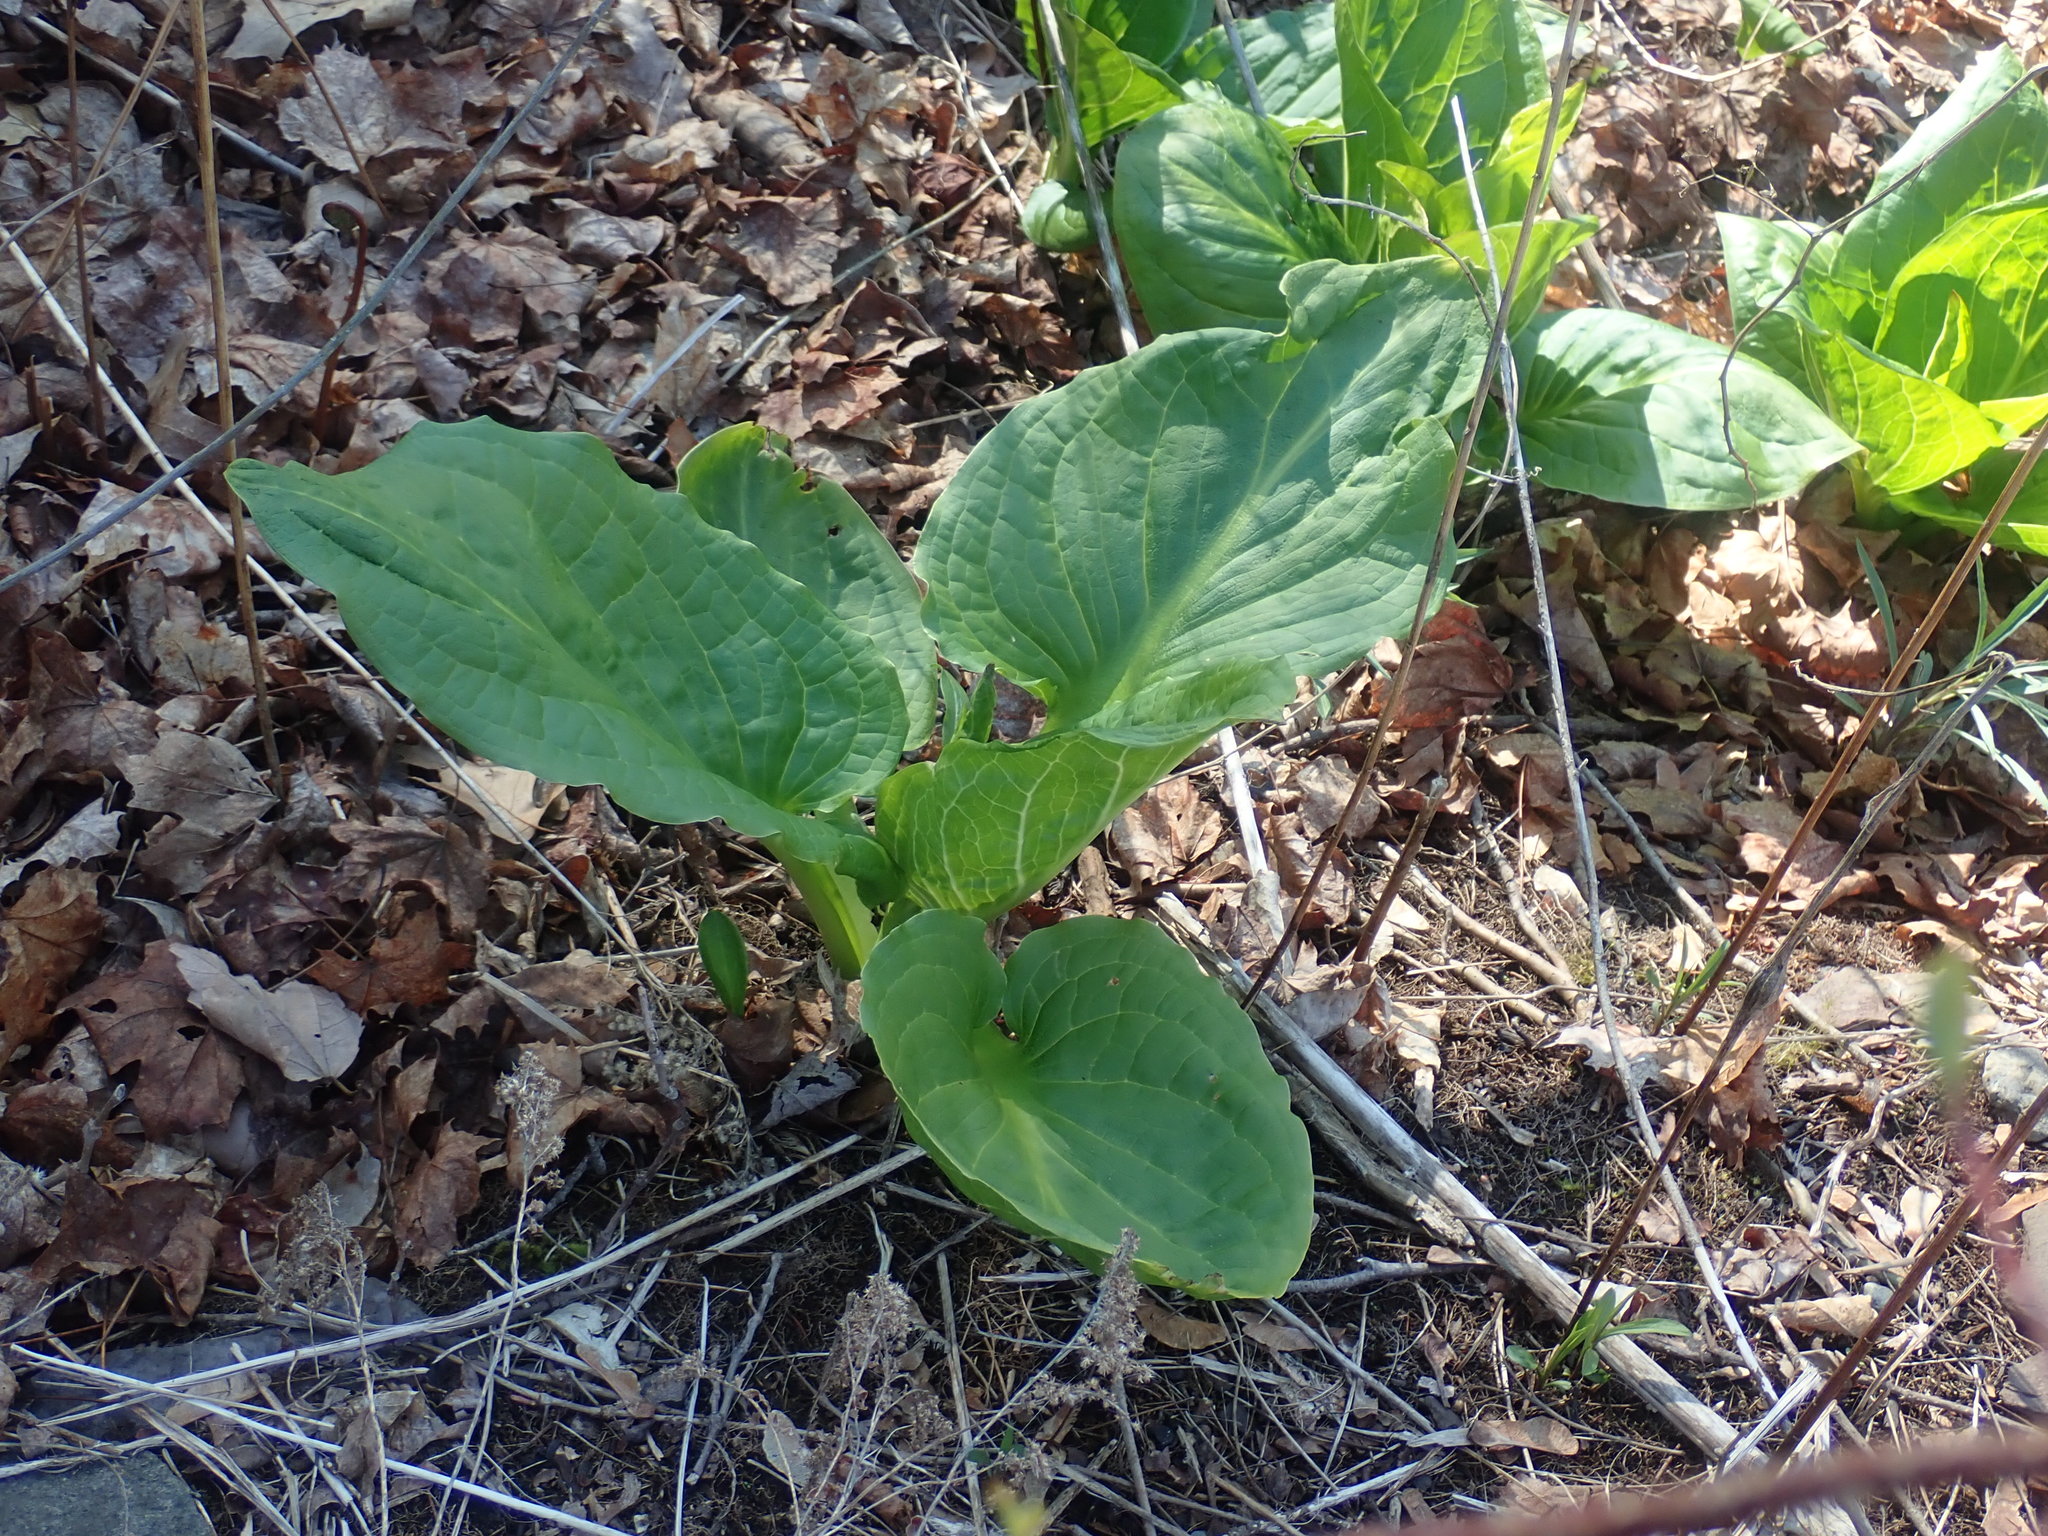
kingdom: Plantae
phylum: Tracheophyta
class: Liliopsida
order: Alismatales
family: Araceae
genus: Symplocarpus
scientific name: Symplocarpus foetidus
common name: Eastern skunk cabbage
